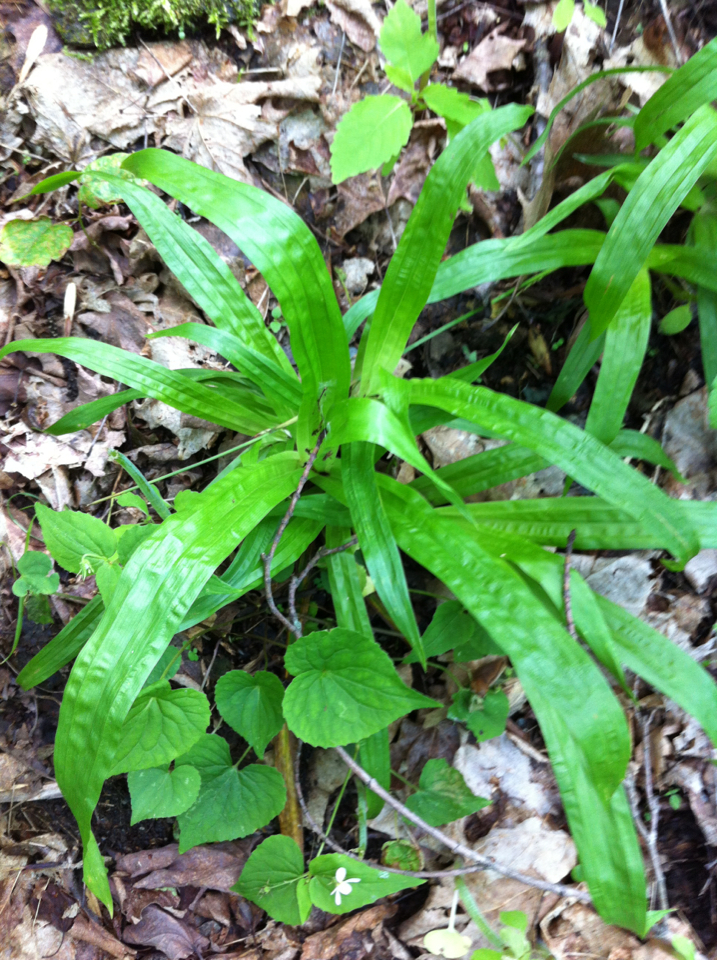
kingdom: Plantae
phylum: Tracheophyta
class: Liliopsida
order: Poales
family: Cyperaceae
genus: Carex
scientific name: Carex plantaginea
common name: Plantain-leaved sedge
